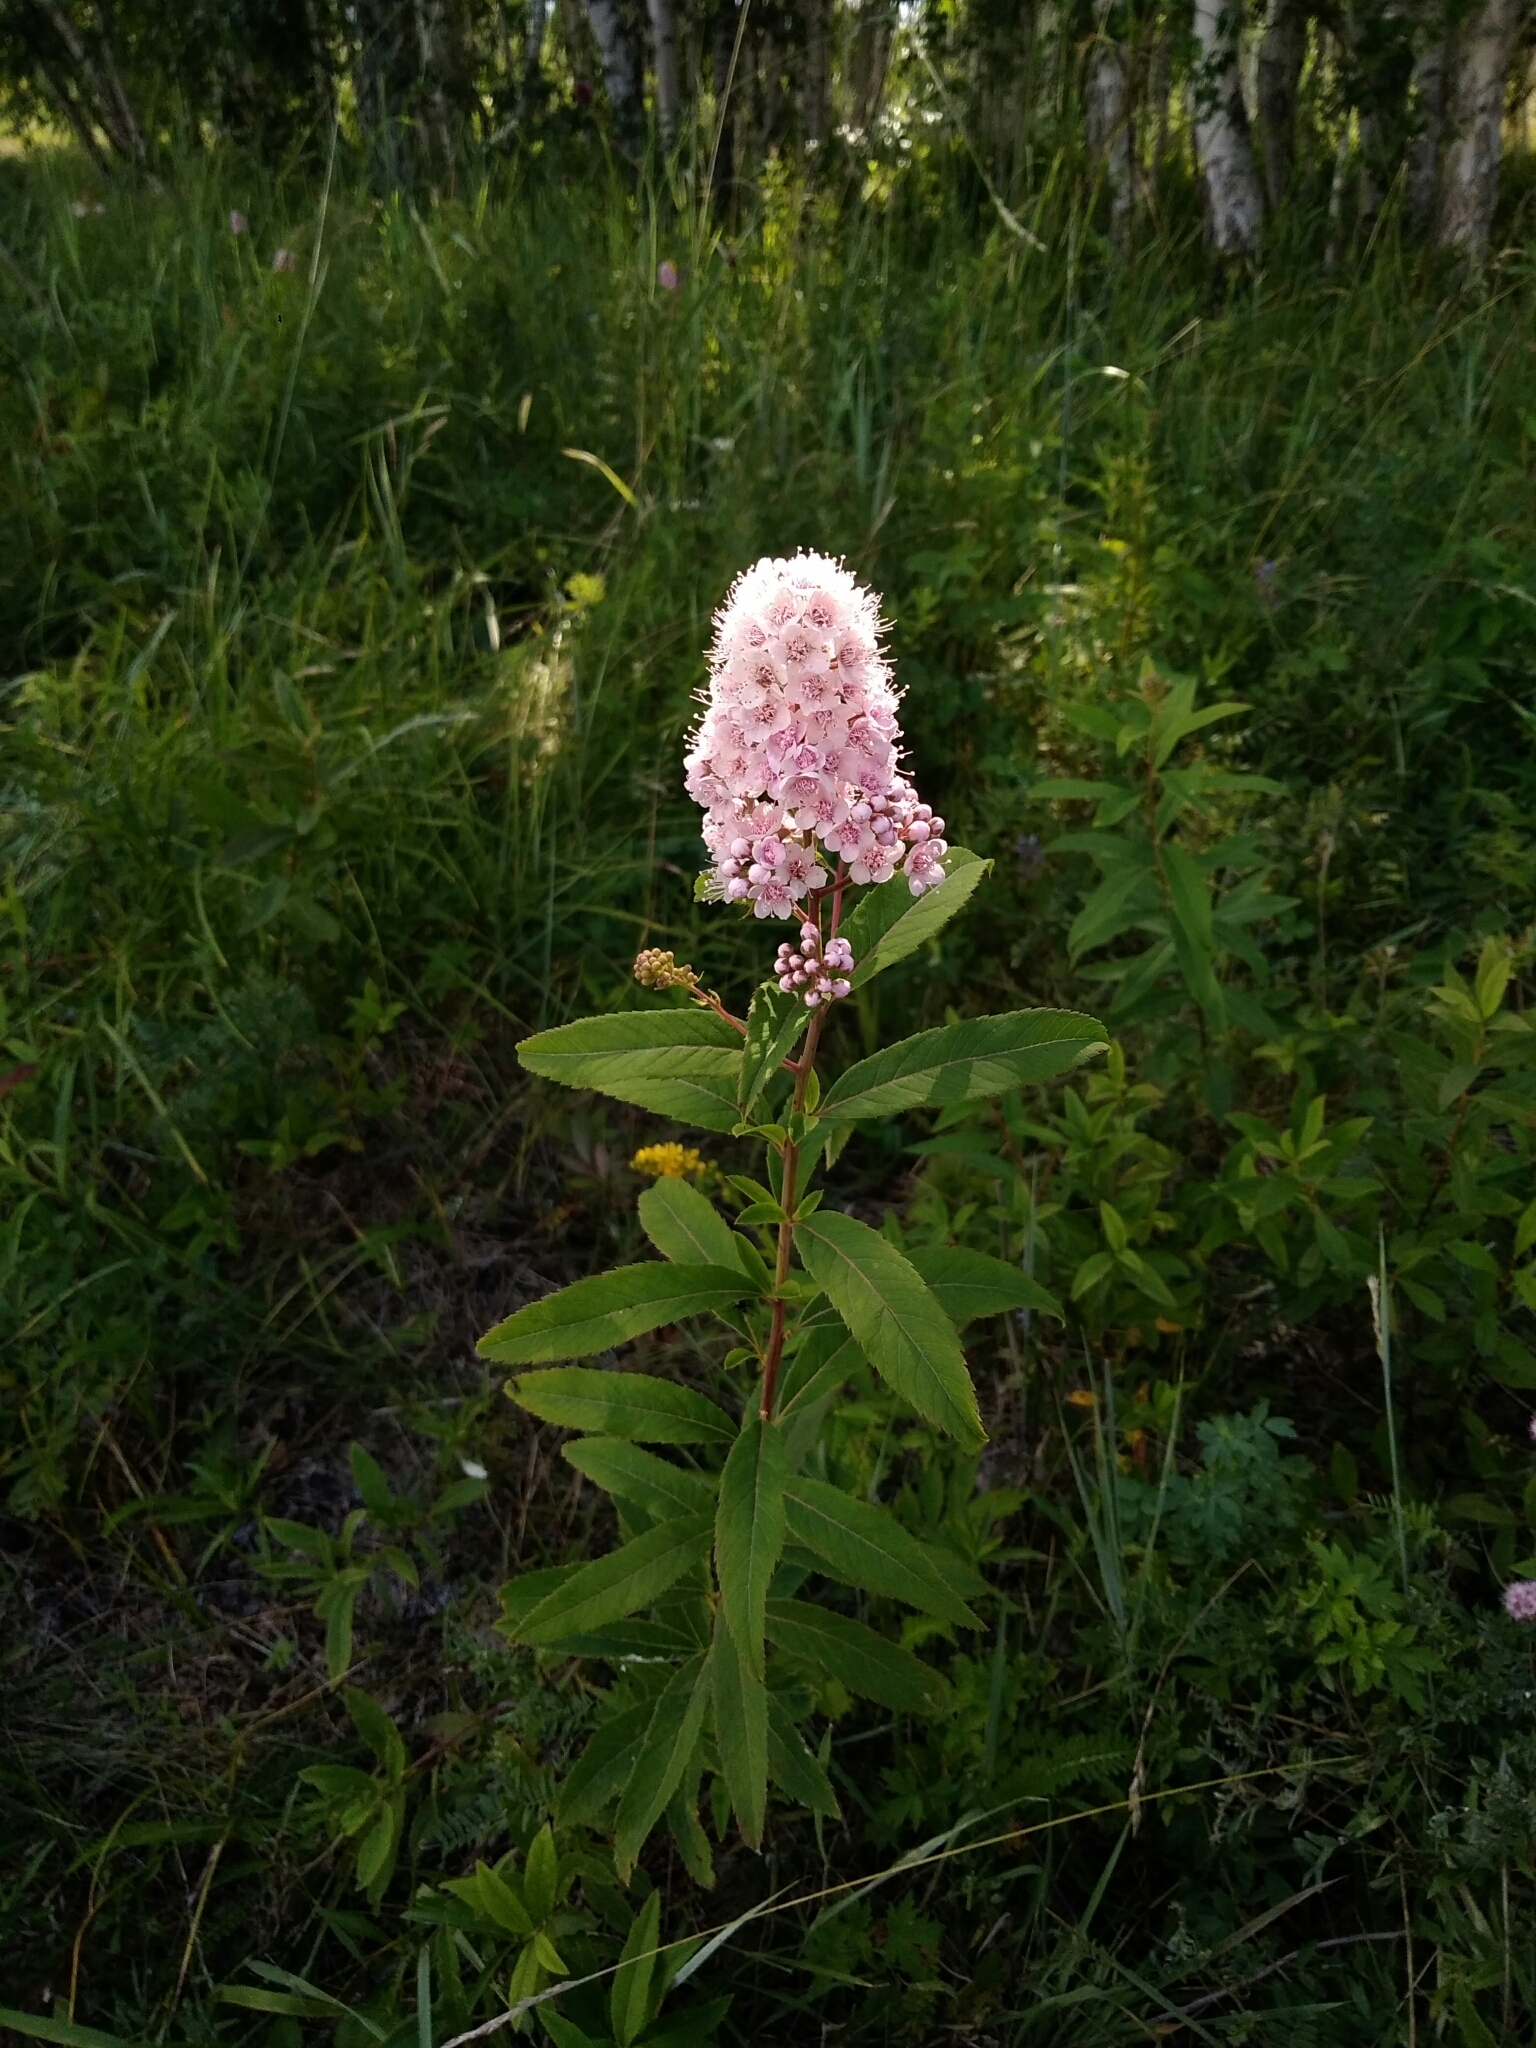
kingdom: Plantae
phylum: Tracheophyta
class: Magnoliopsida
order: Rosales
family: Rosaceae
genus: Spiraea
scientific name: Spiraea salicifolia
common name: Bridewort
